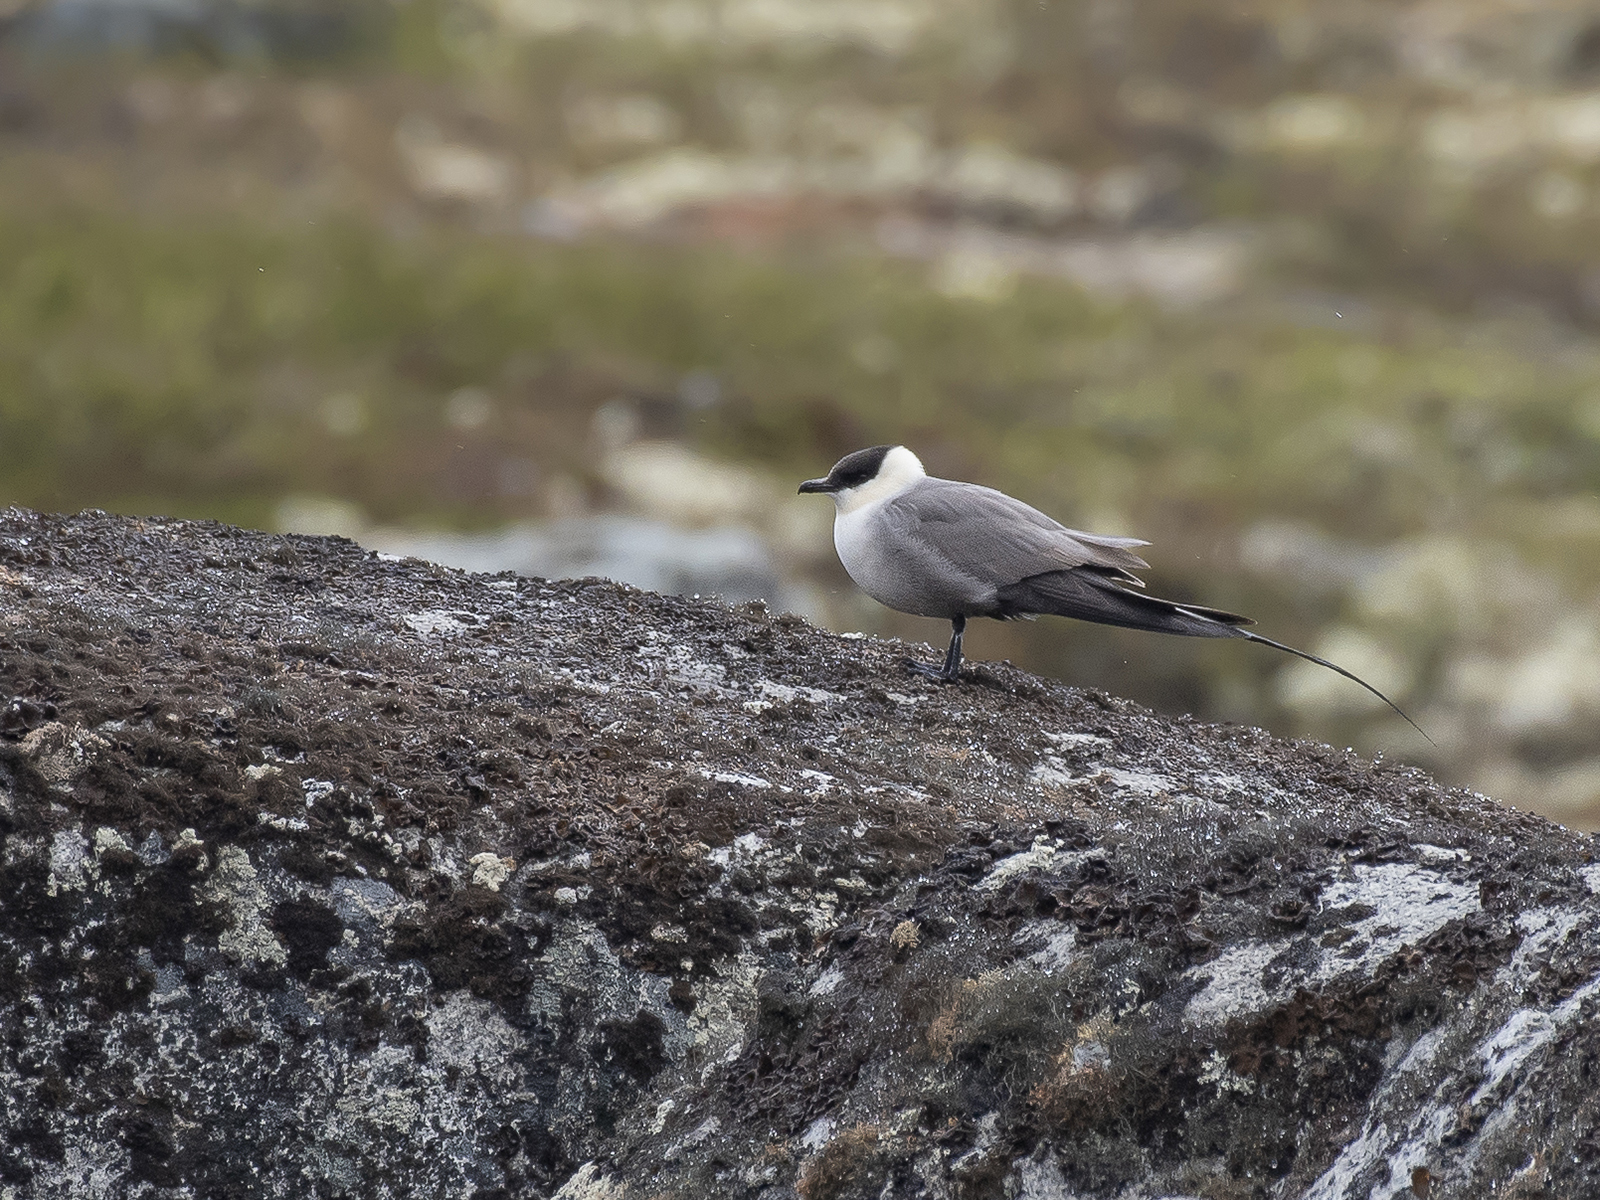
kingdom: Animalia
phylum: Chordata
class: Aves
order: Charadriiformes
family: Stercorariidae
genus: Stercorarius
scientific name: Stercorarius longicaudus
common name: Long-tailed jaeger
